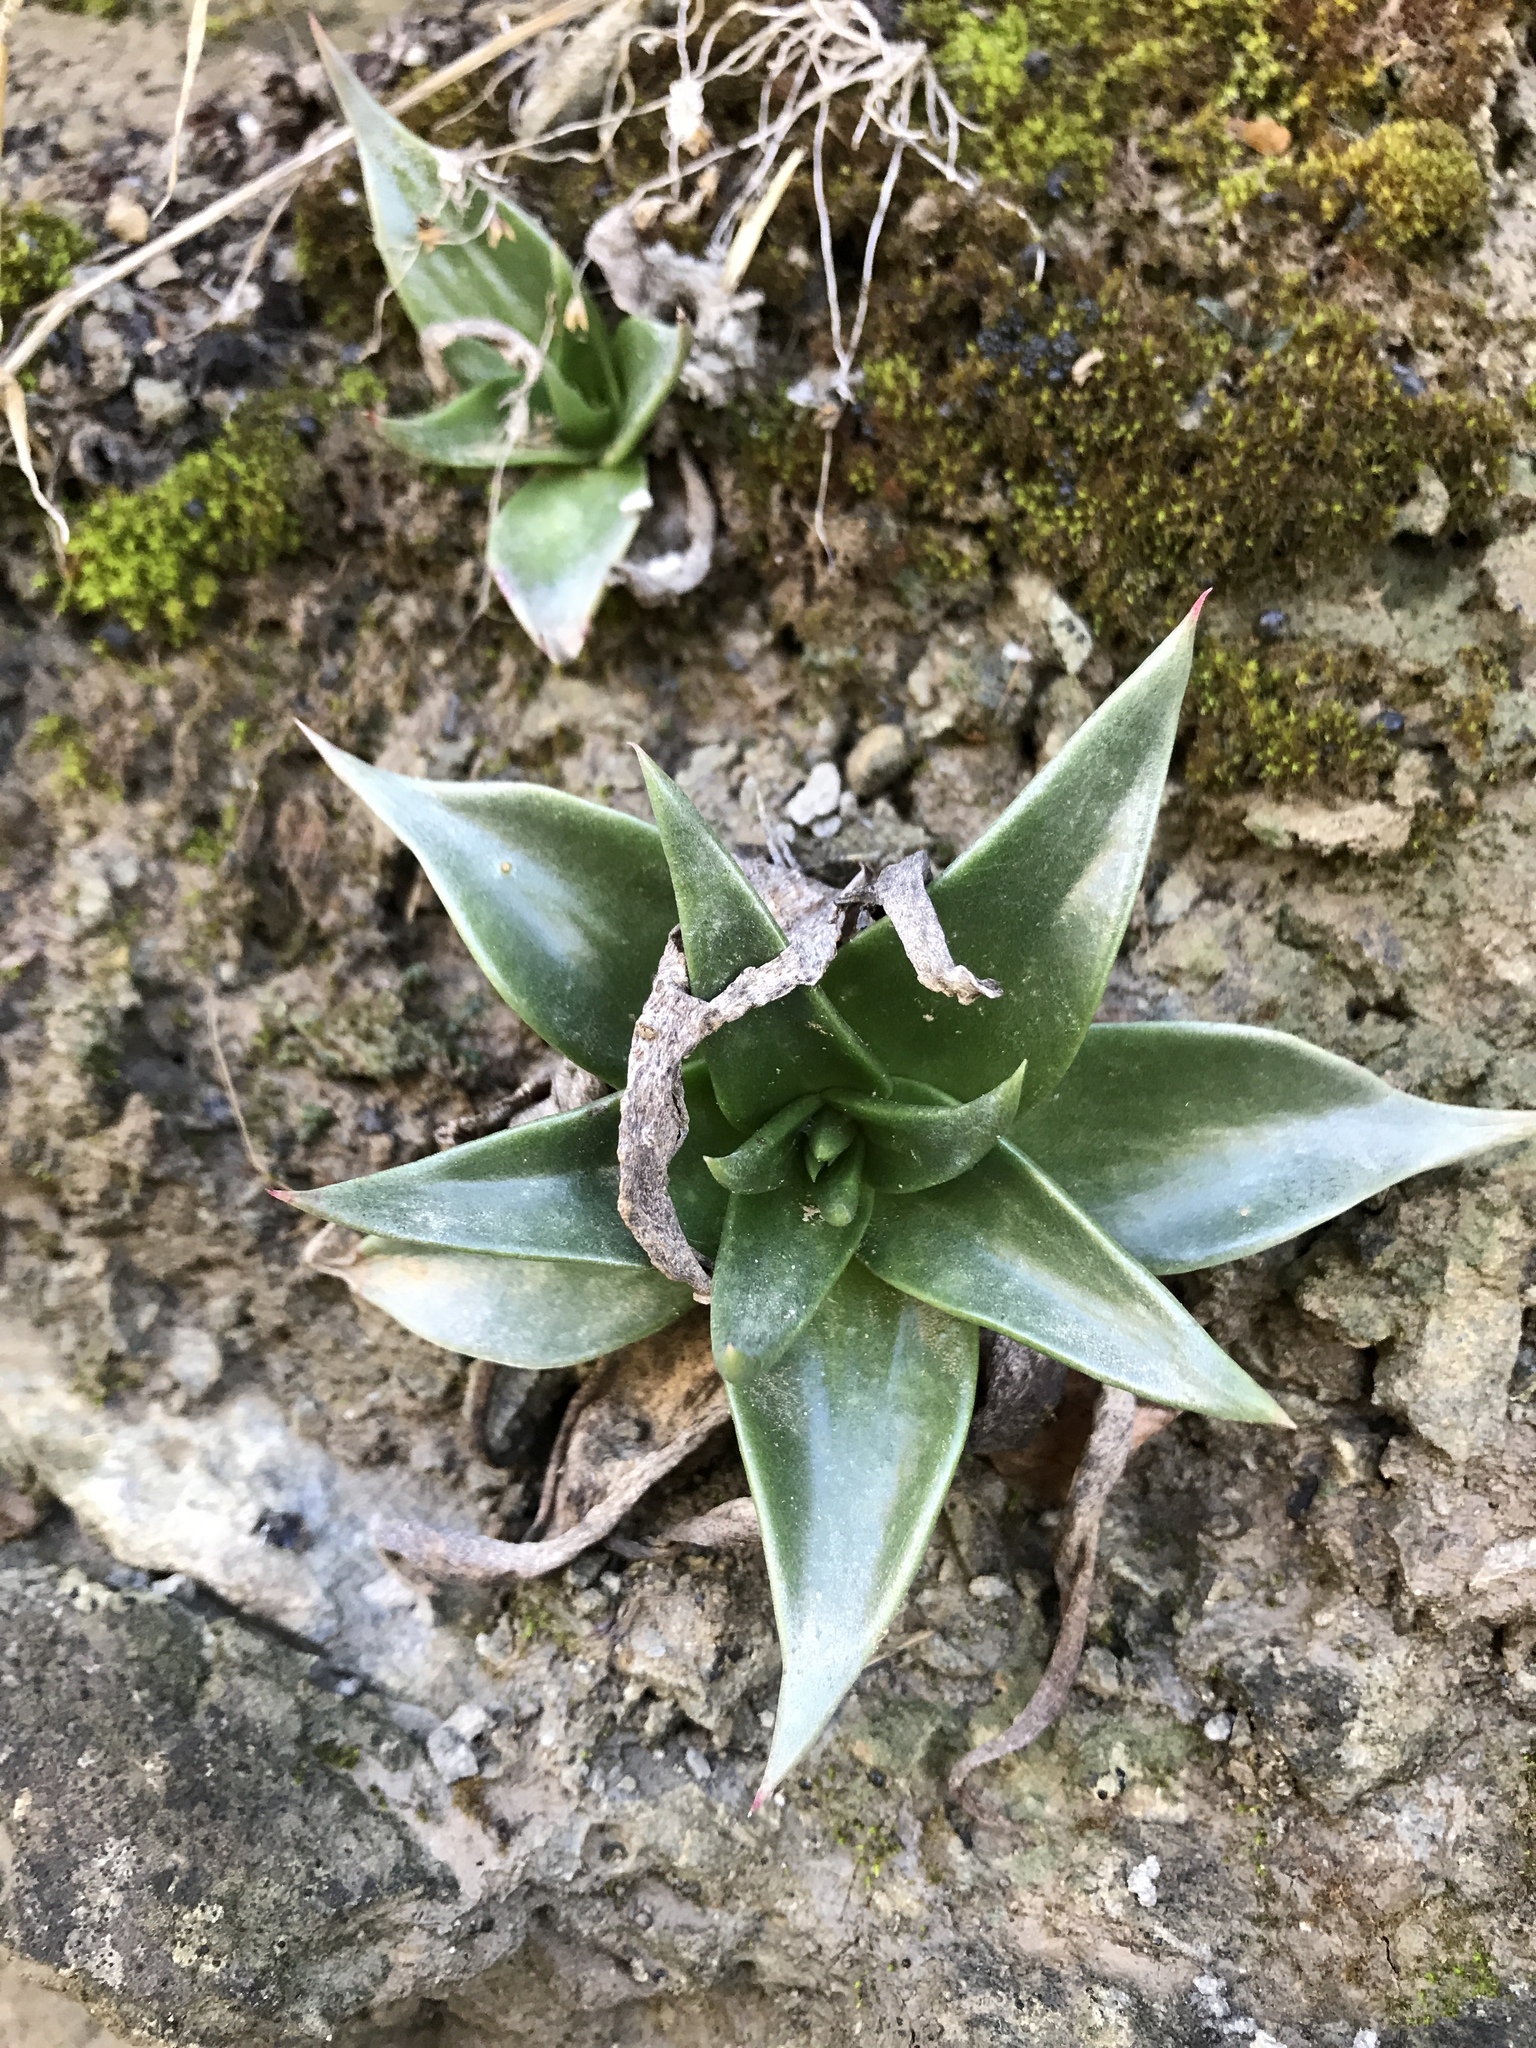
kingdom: Plantae
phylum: Tracheophyta
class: Magnoliopsida
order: Saxifragales
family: Crassulaceae
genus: Dudleya
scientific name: Dudleya lanceolata
